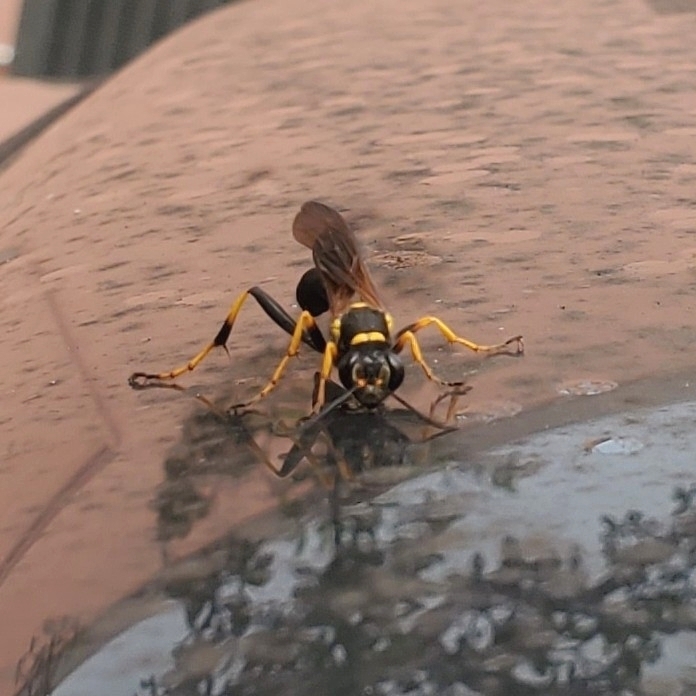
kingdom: Animalia
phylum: Arthropoda
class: Insecta
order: Hymenoptera
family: Sphecidae
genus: Sceliphron
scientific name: Sceliphron caementarium
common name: Mud dauber
